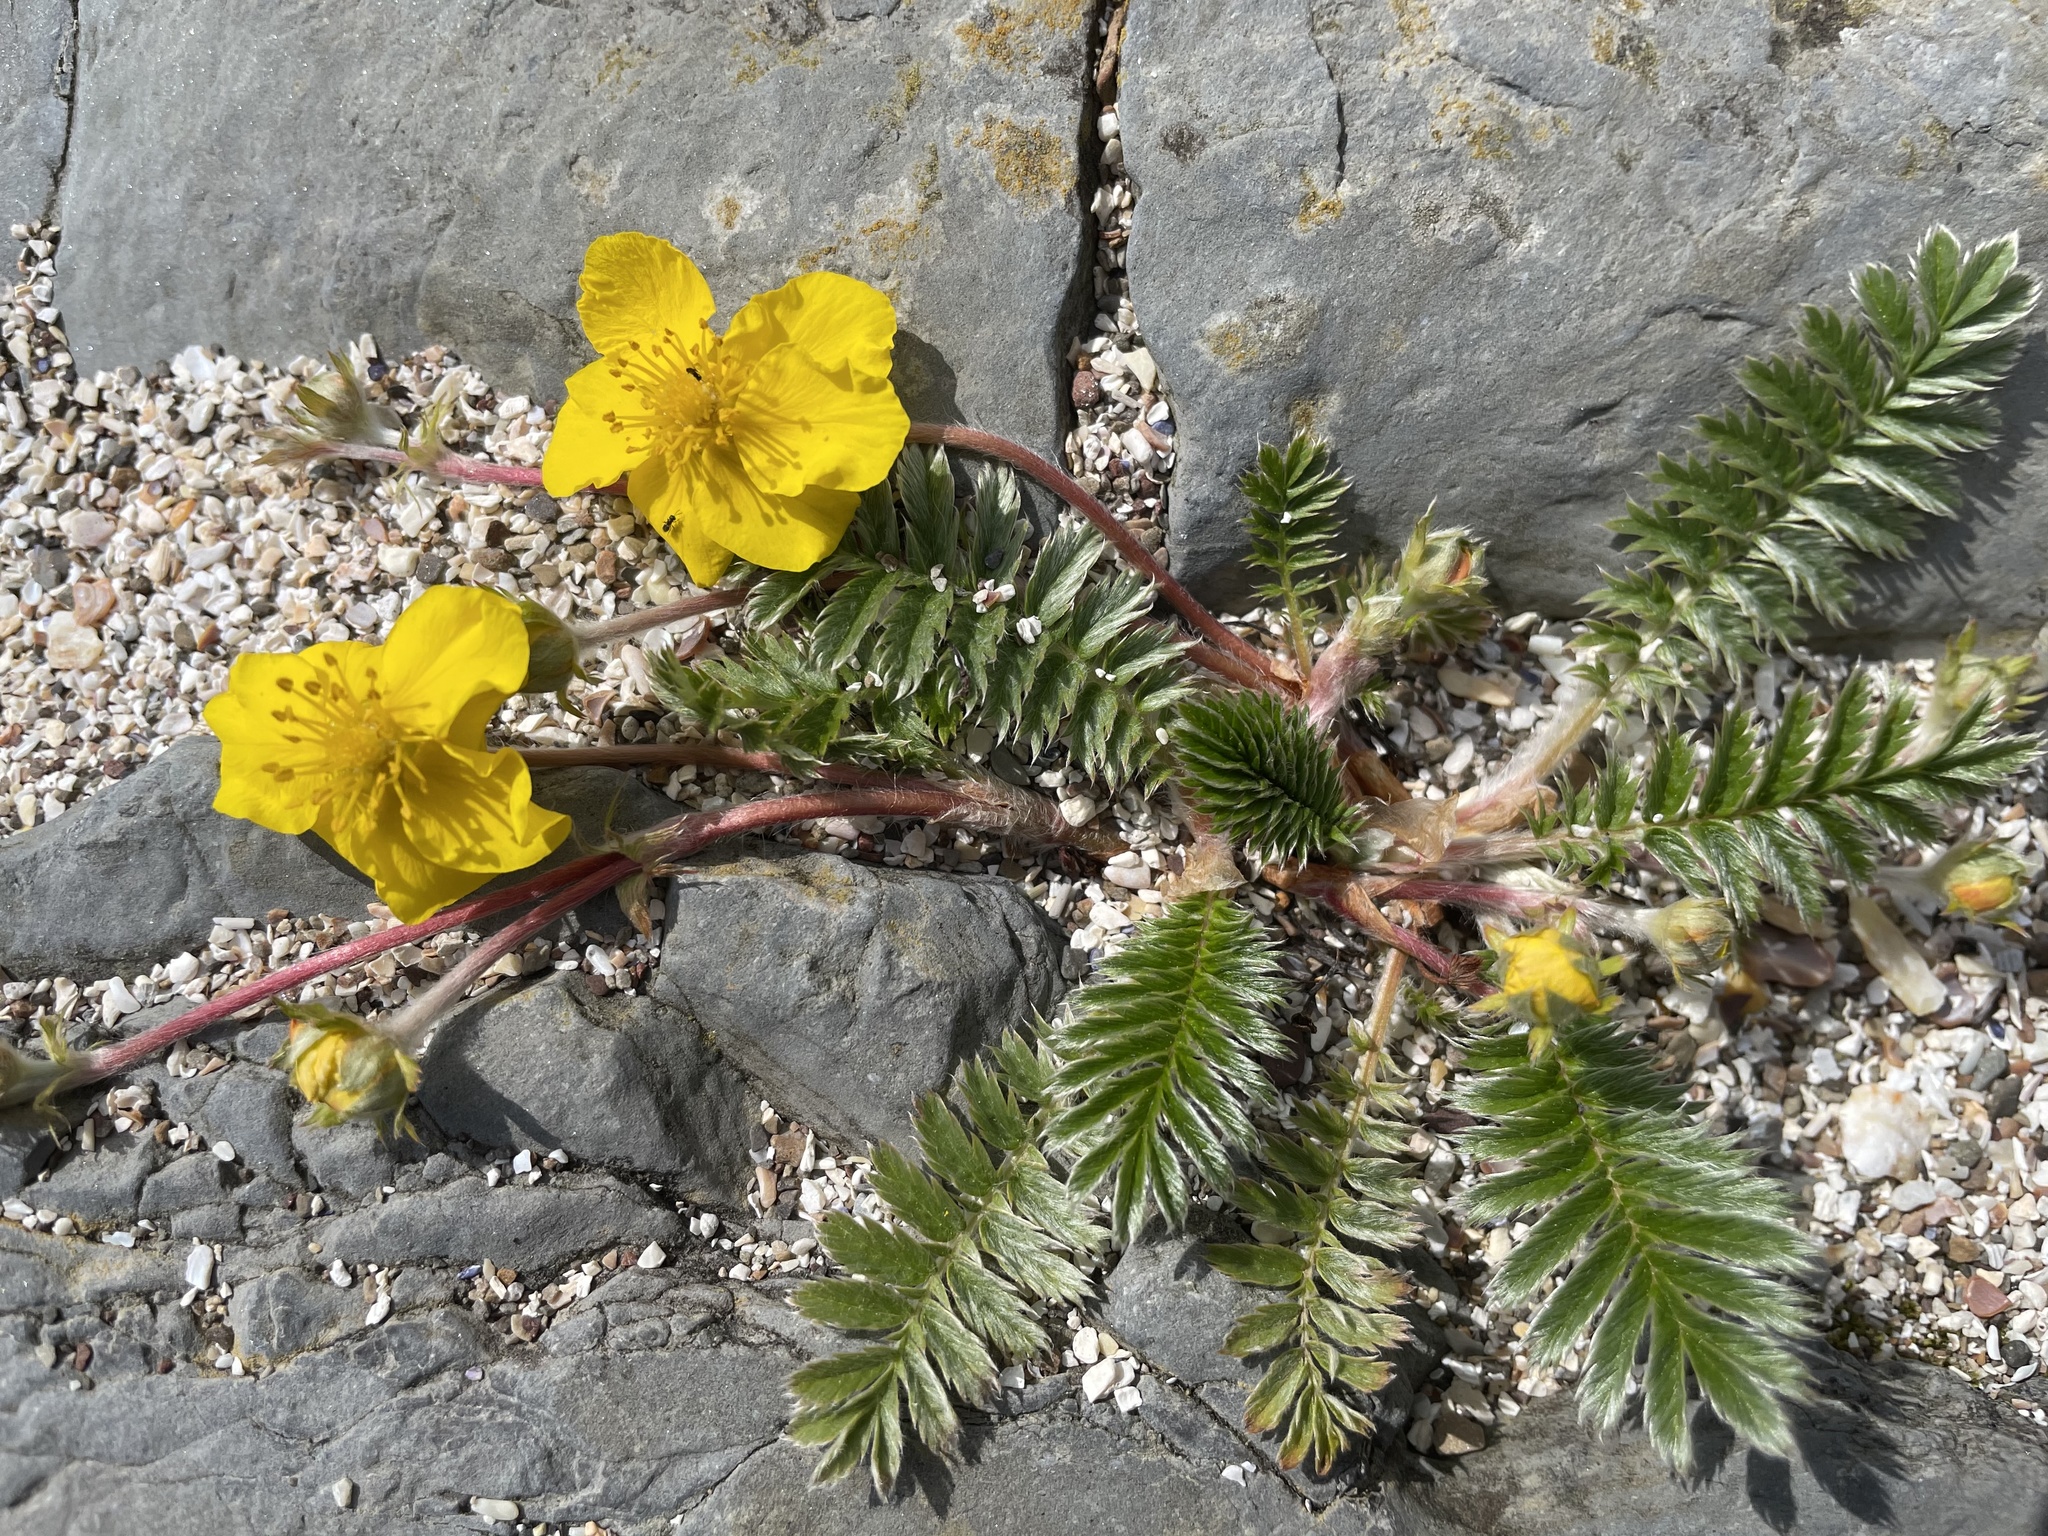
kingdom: Plantae
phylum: Tracheophyta
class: Magnoliopsida
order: Rosales
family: Rosaceae
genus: Argentina
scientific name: Argentina anserina
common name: Common silverweed
